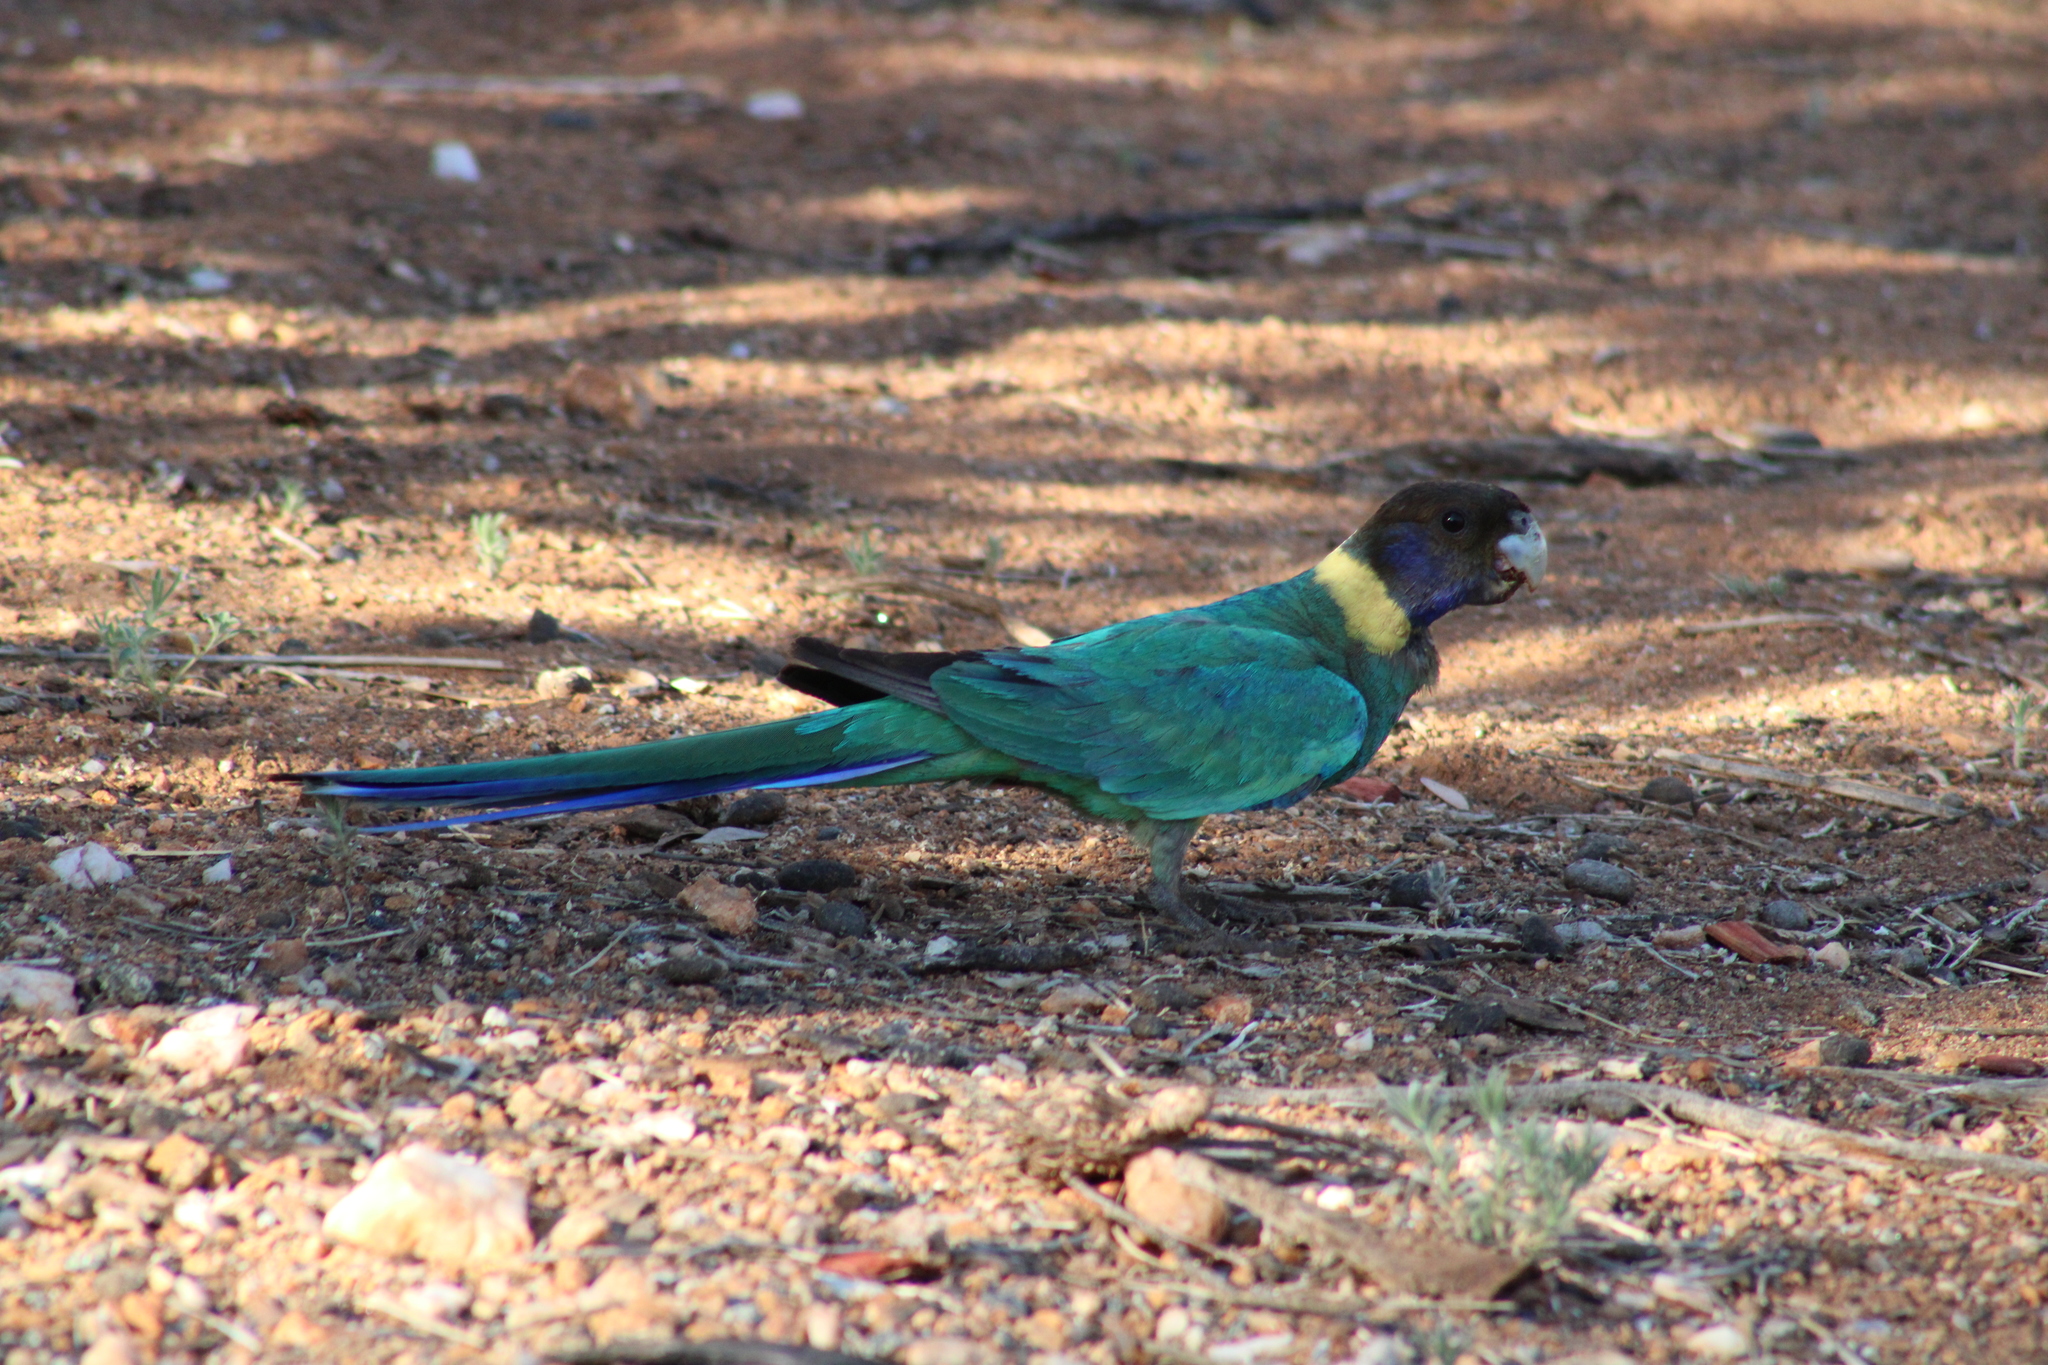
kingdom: Animalia
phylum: Chordata
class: Aves
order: Psittaciformes
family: Psittacidae
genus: Barnardius
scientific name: Barnardius zonarius
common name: Australian ringneck
